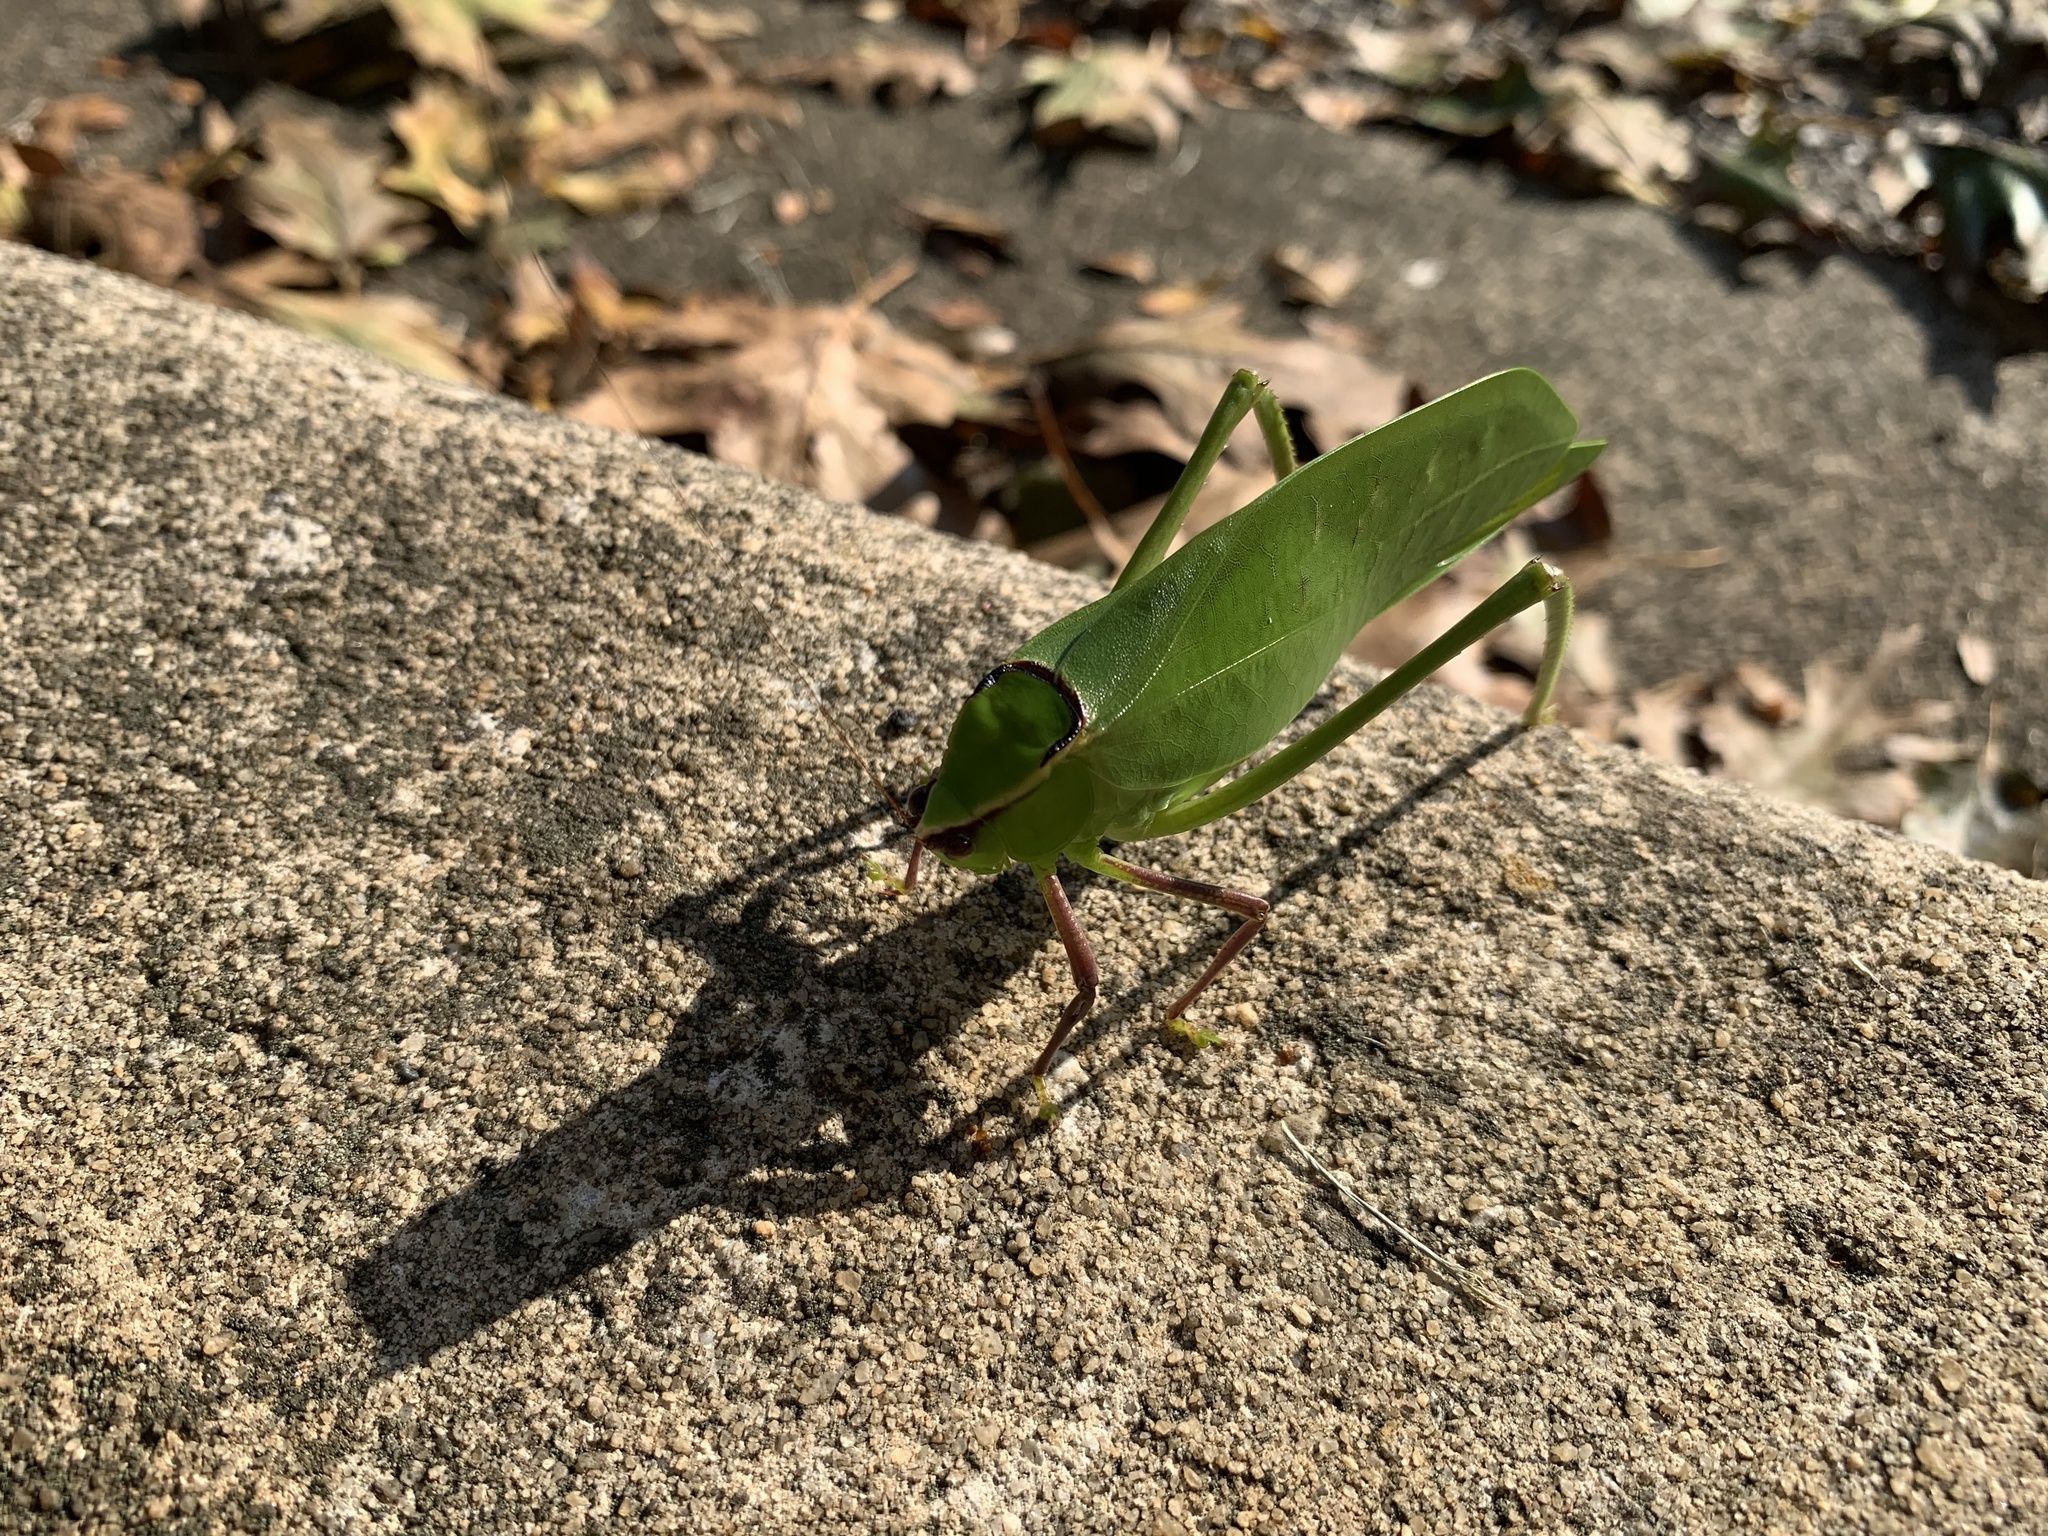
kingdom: Animalia
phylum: Arthropoda
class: Insecta
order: Orthoptera
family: Tettigoniidae
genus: Stilpnochlora
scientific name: Stilpnochlora couloniana
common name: Giant katydid
